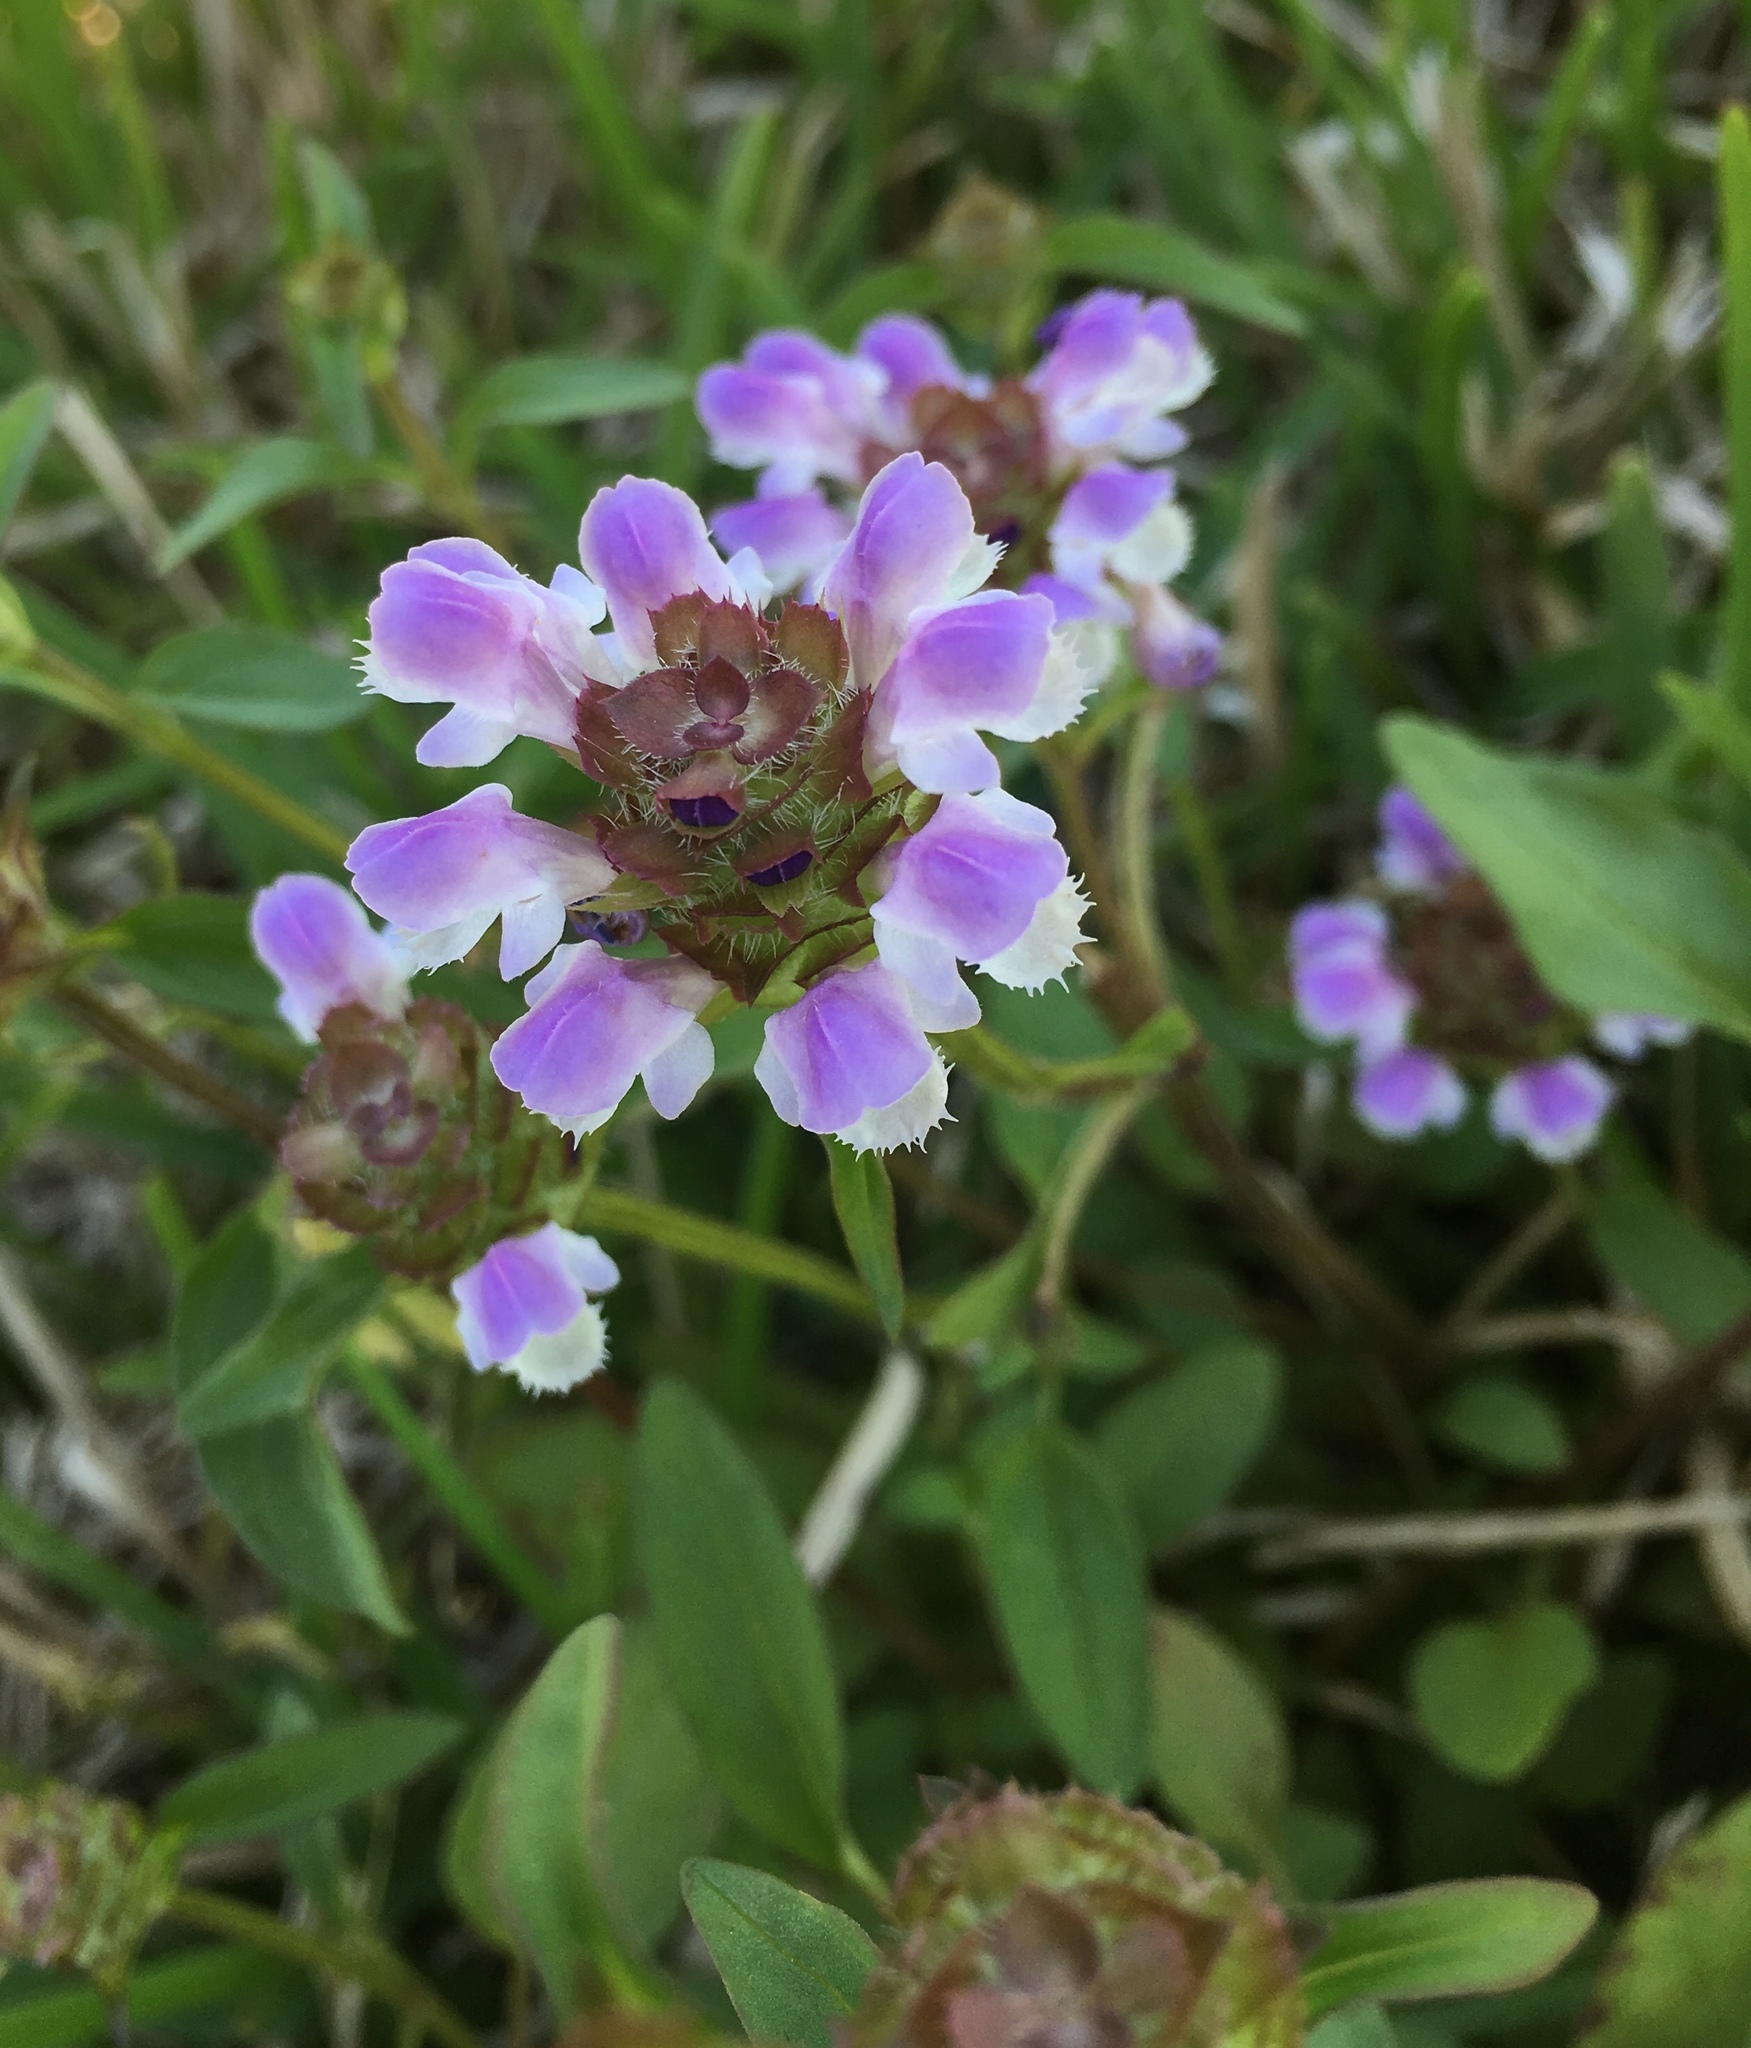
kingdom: Plantae
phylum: Tracheophyta
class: Magnoliopsida
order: Lamiales
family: Lamiaceae
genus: Prunella
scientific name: Prunella vulgaris
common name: Heal-all
